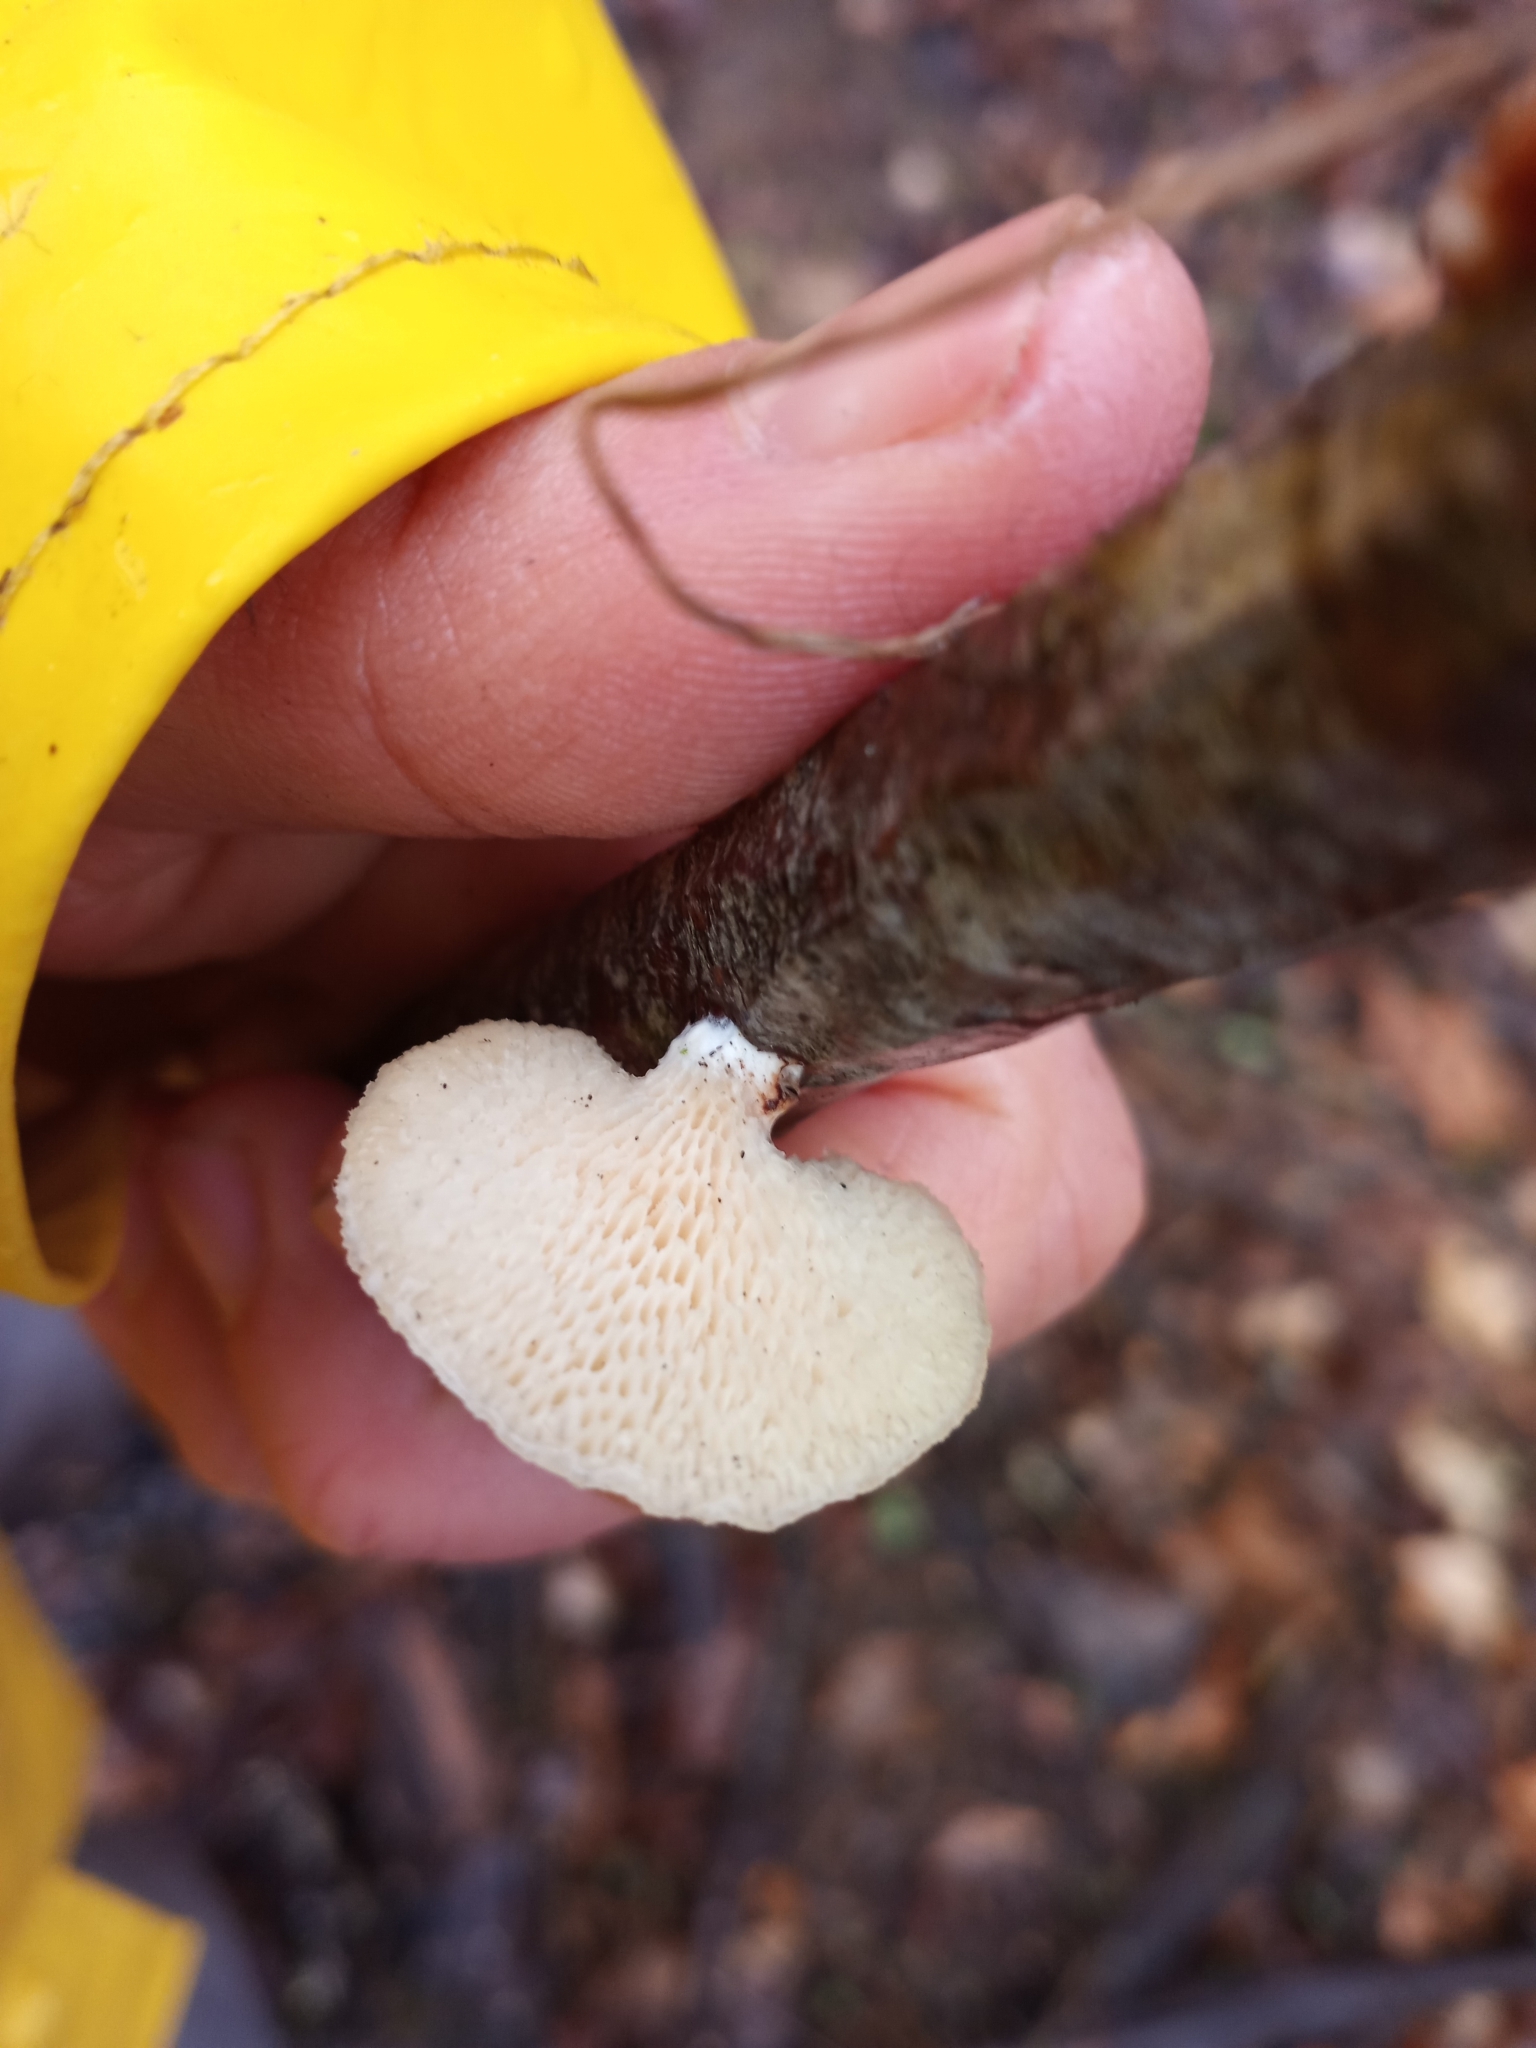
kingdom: Fungi
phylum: Basidiomycota
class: Agaricomycetes
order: Polyporales
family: Polyporaceae
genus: Neofavolus
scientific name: Neofavolus alveolaris
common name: Hexagonal-pored polypore
